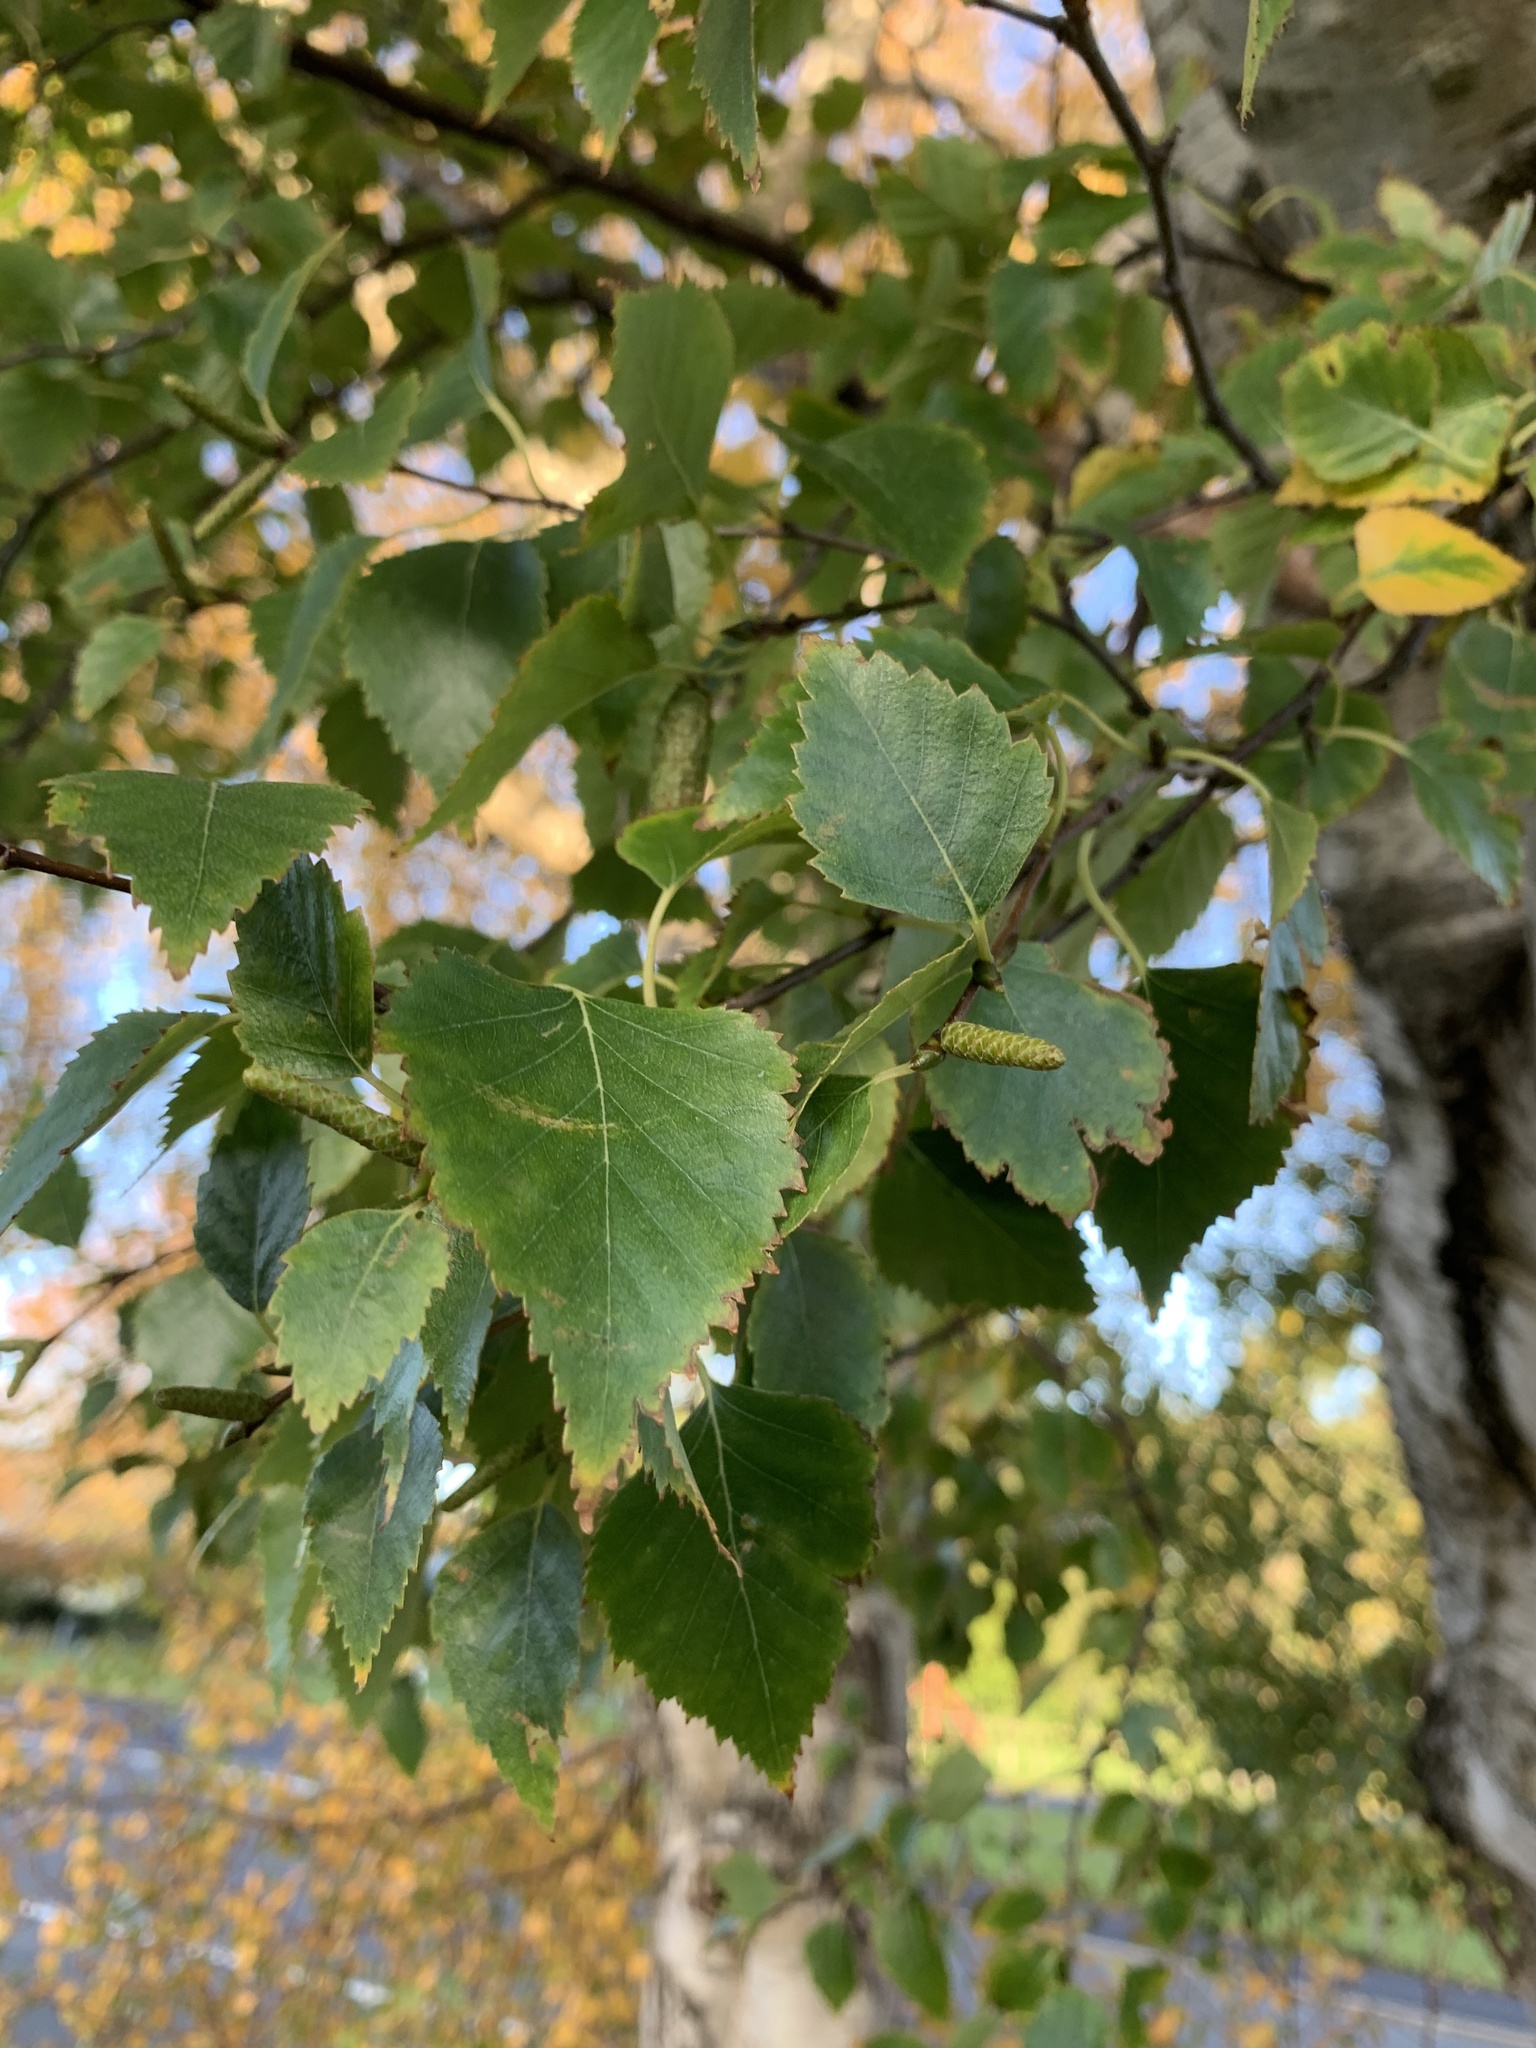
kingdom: Plantae
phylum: Tracheophyta
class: Magnoliopsida
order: Fagales
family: Betulaceae
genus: Betula
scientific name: Betula pendula
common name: Silver birch
